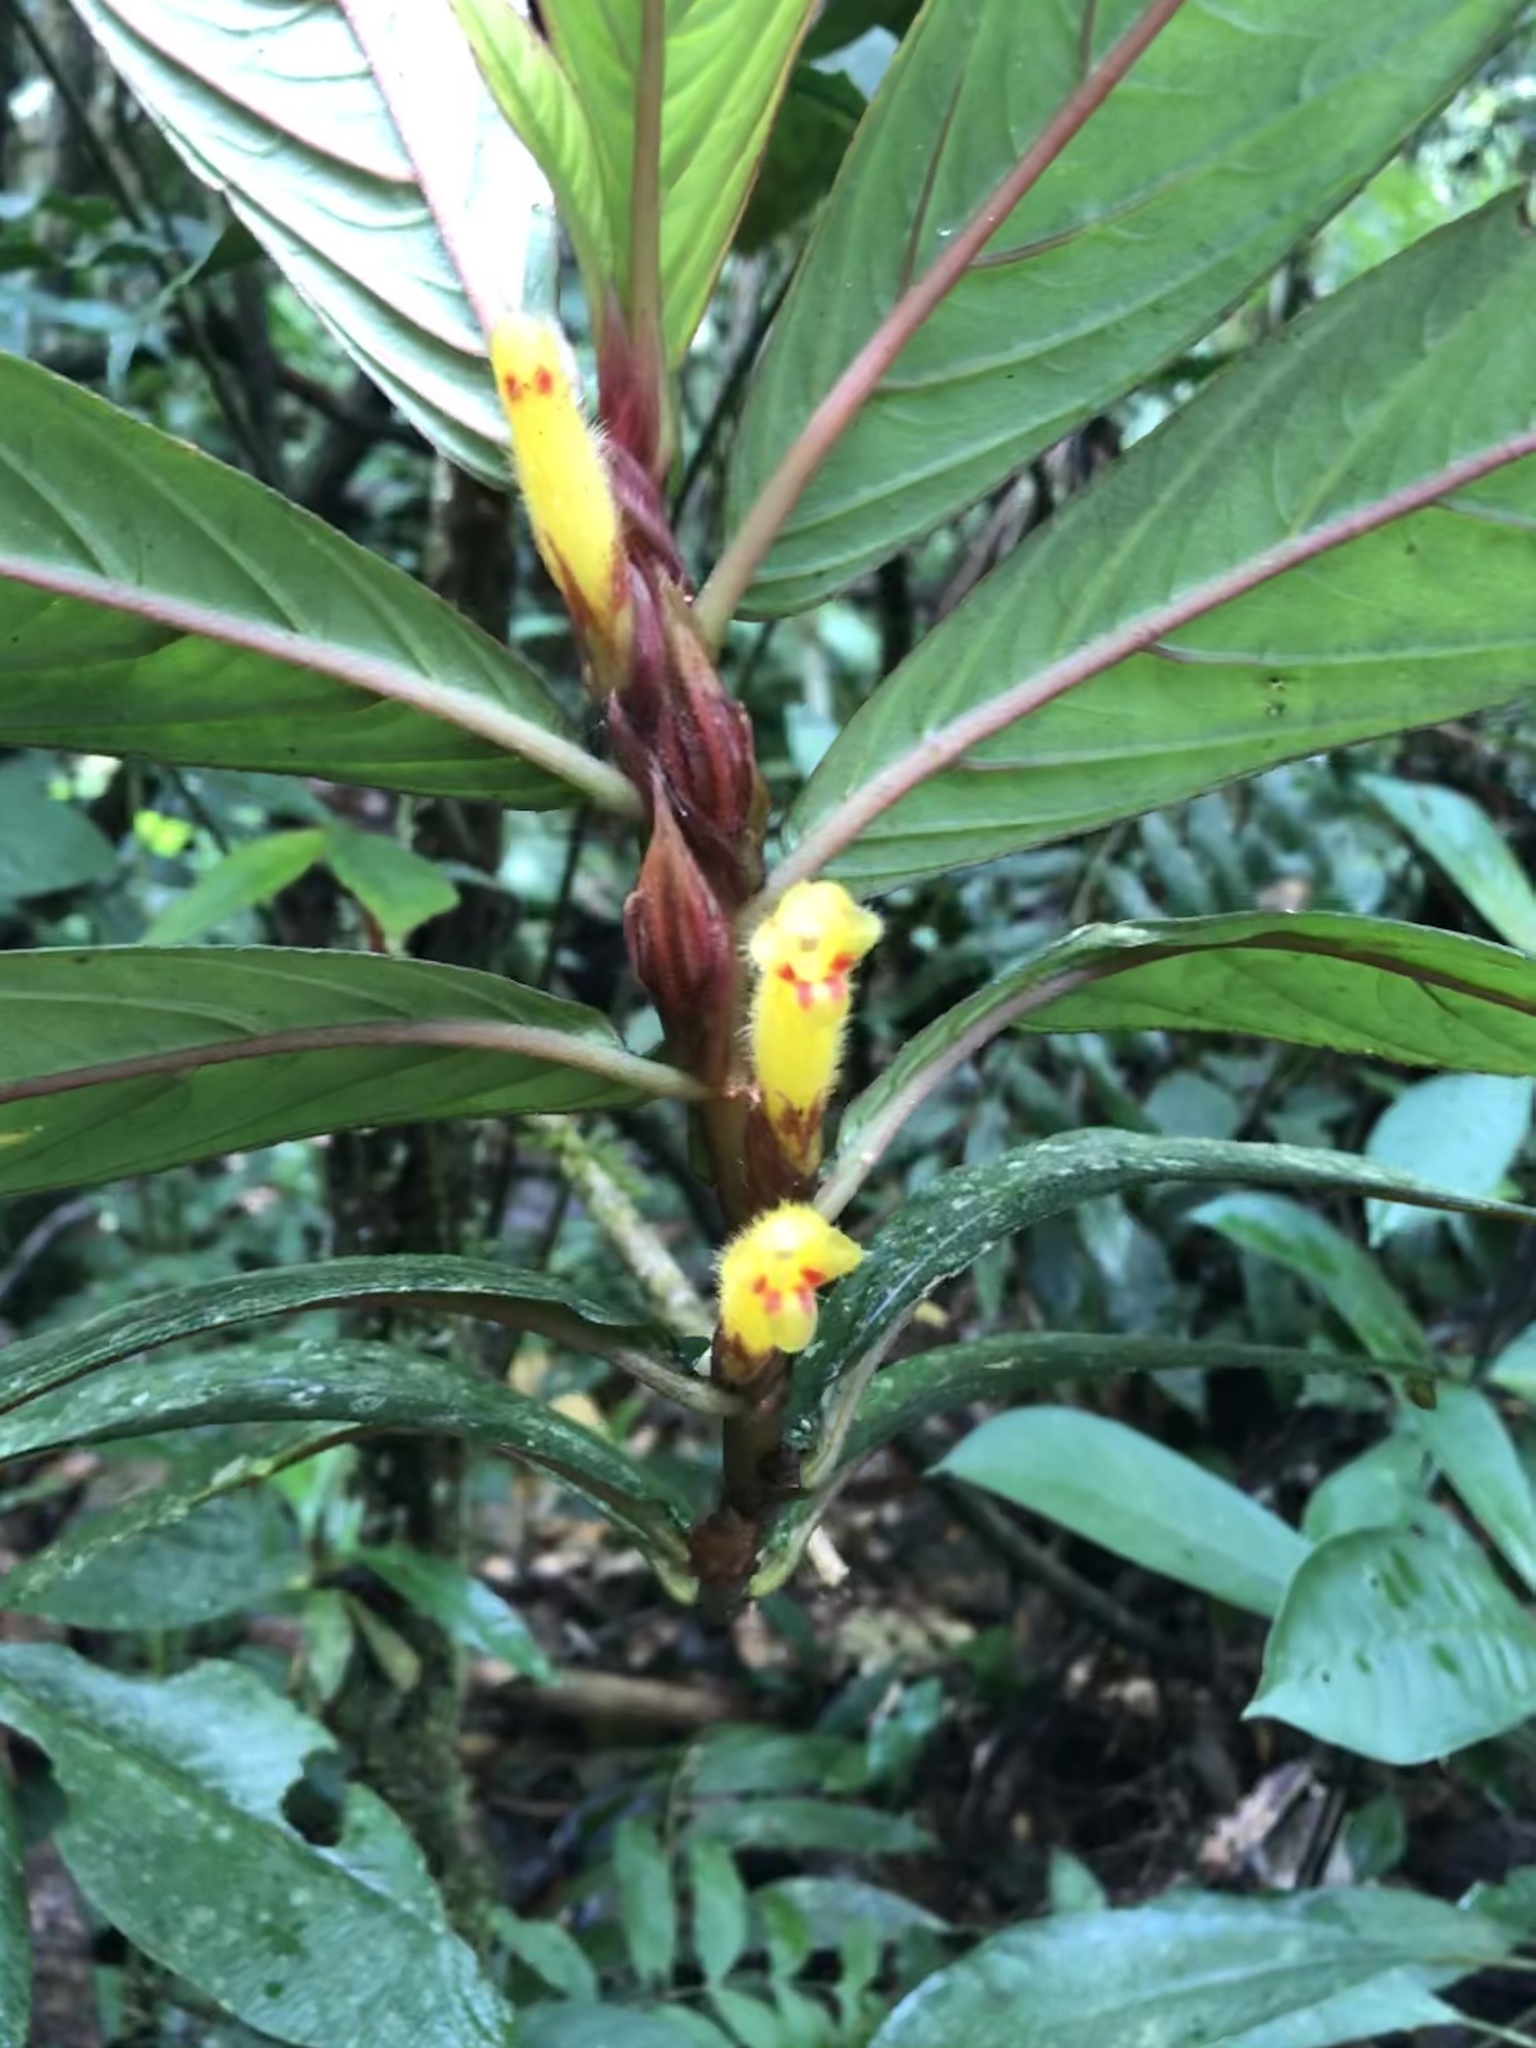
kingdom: Plantae
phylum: Tracheophyta
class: Magnoliopsida
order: Lamiales
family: Gesneriaceae
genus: Columnea
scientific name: Columnea guttata
